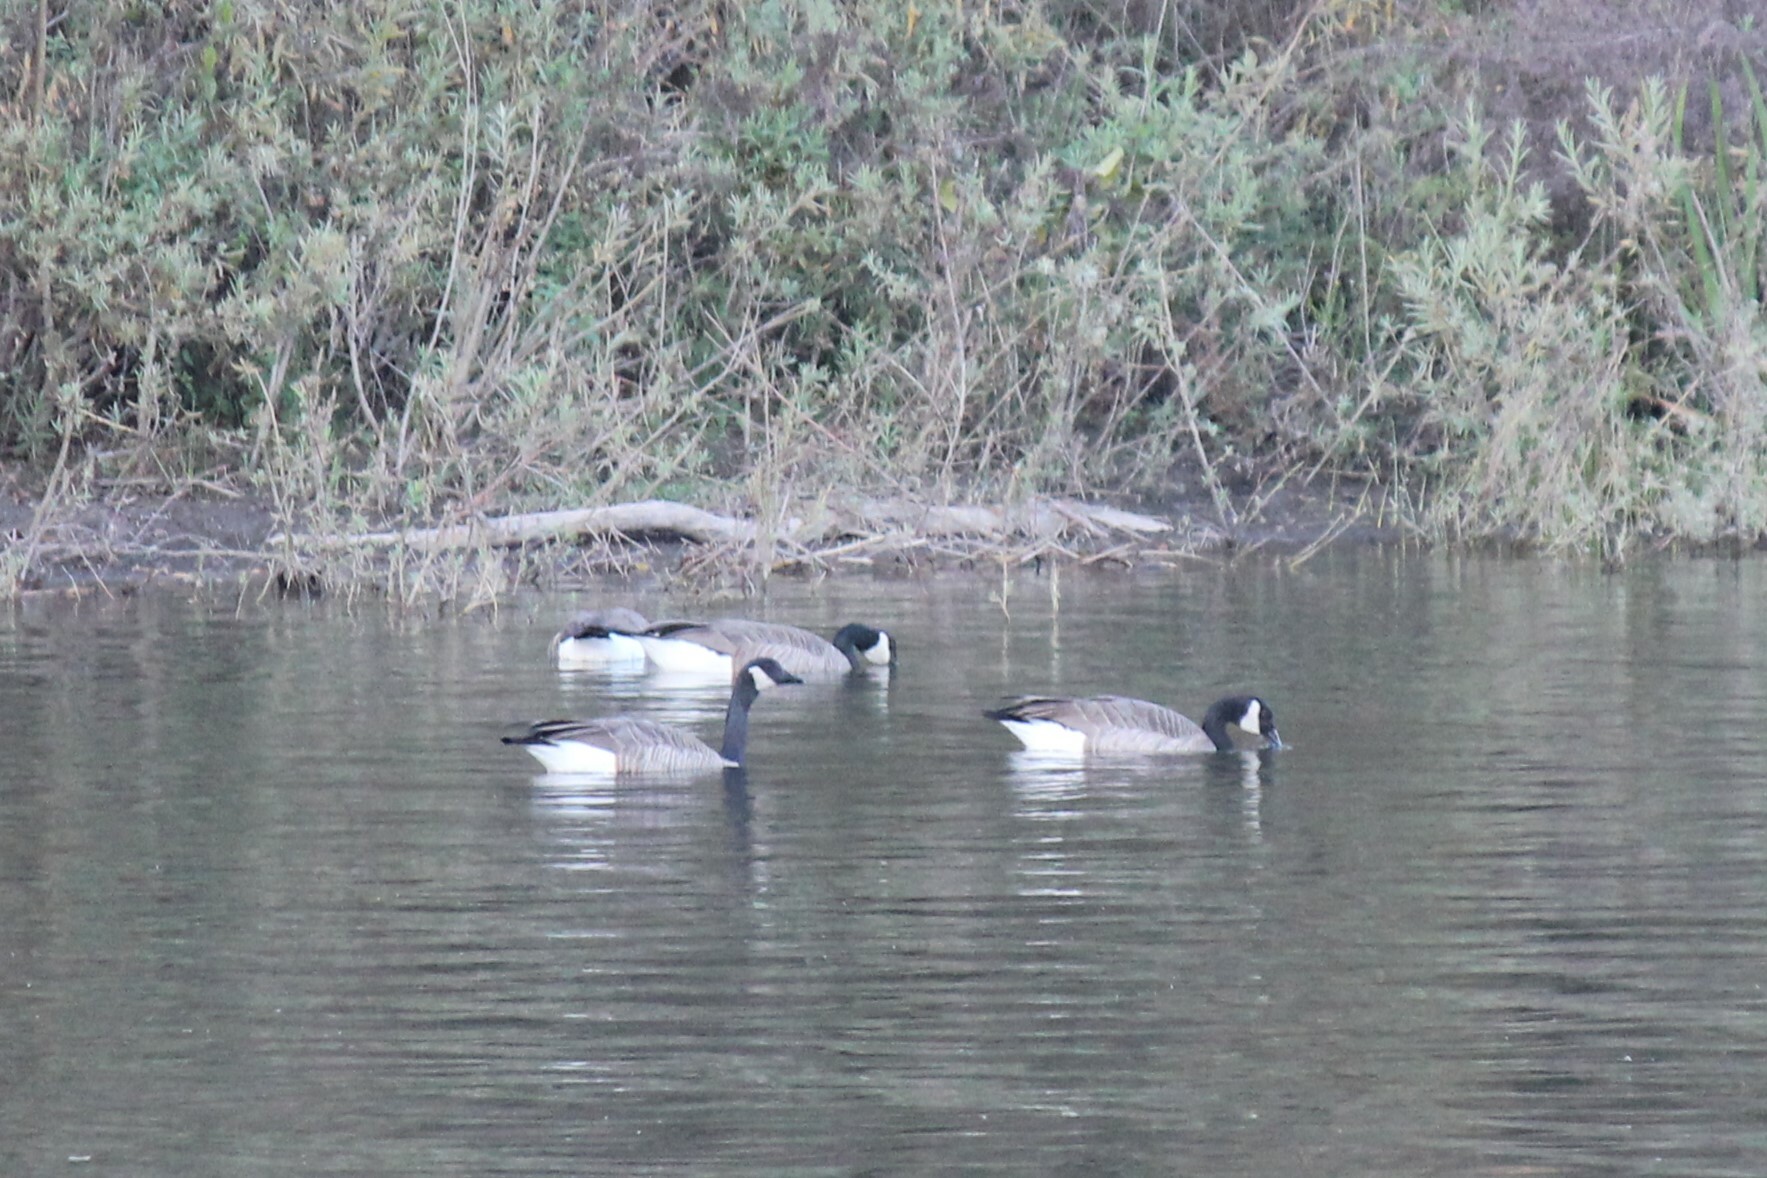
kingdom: Animalia
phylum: Chordata
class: Aves
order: Anseriformes
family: Anatidae
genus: Branta
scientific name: Branta canadensis
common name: Canada goose
